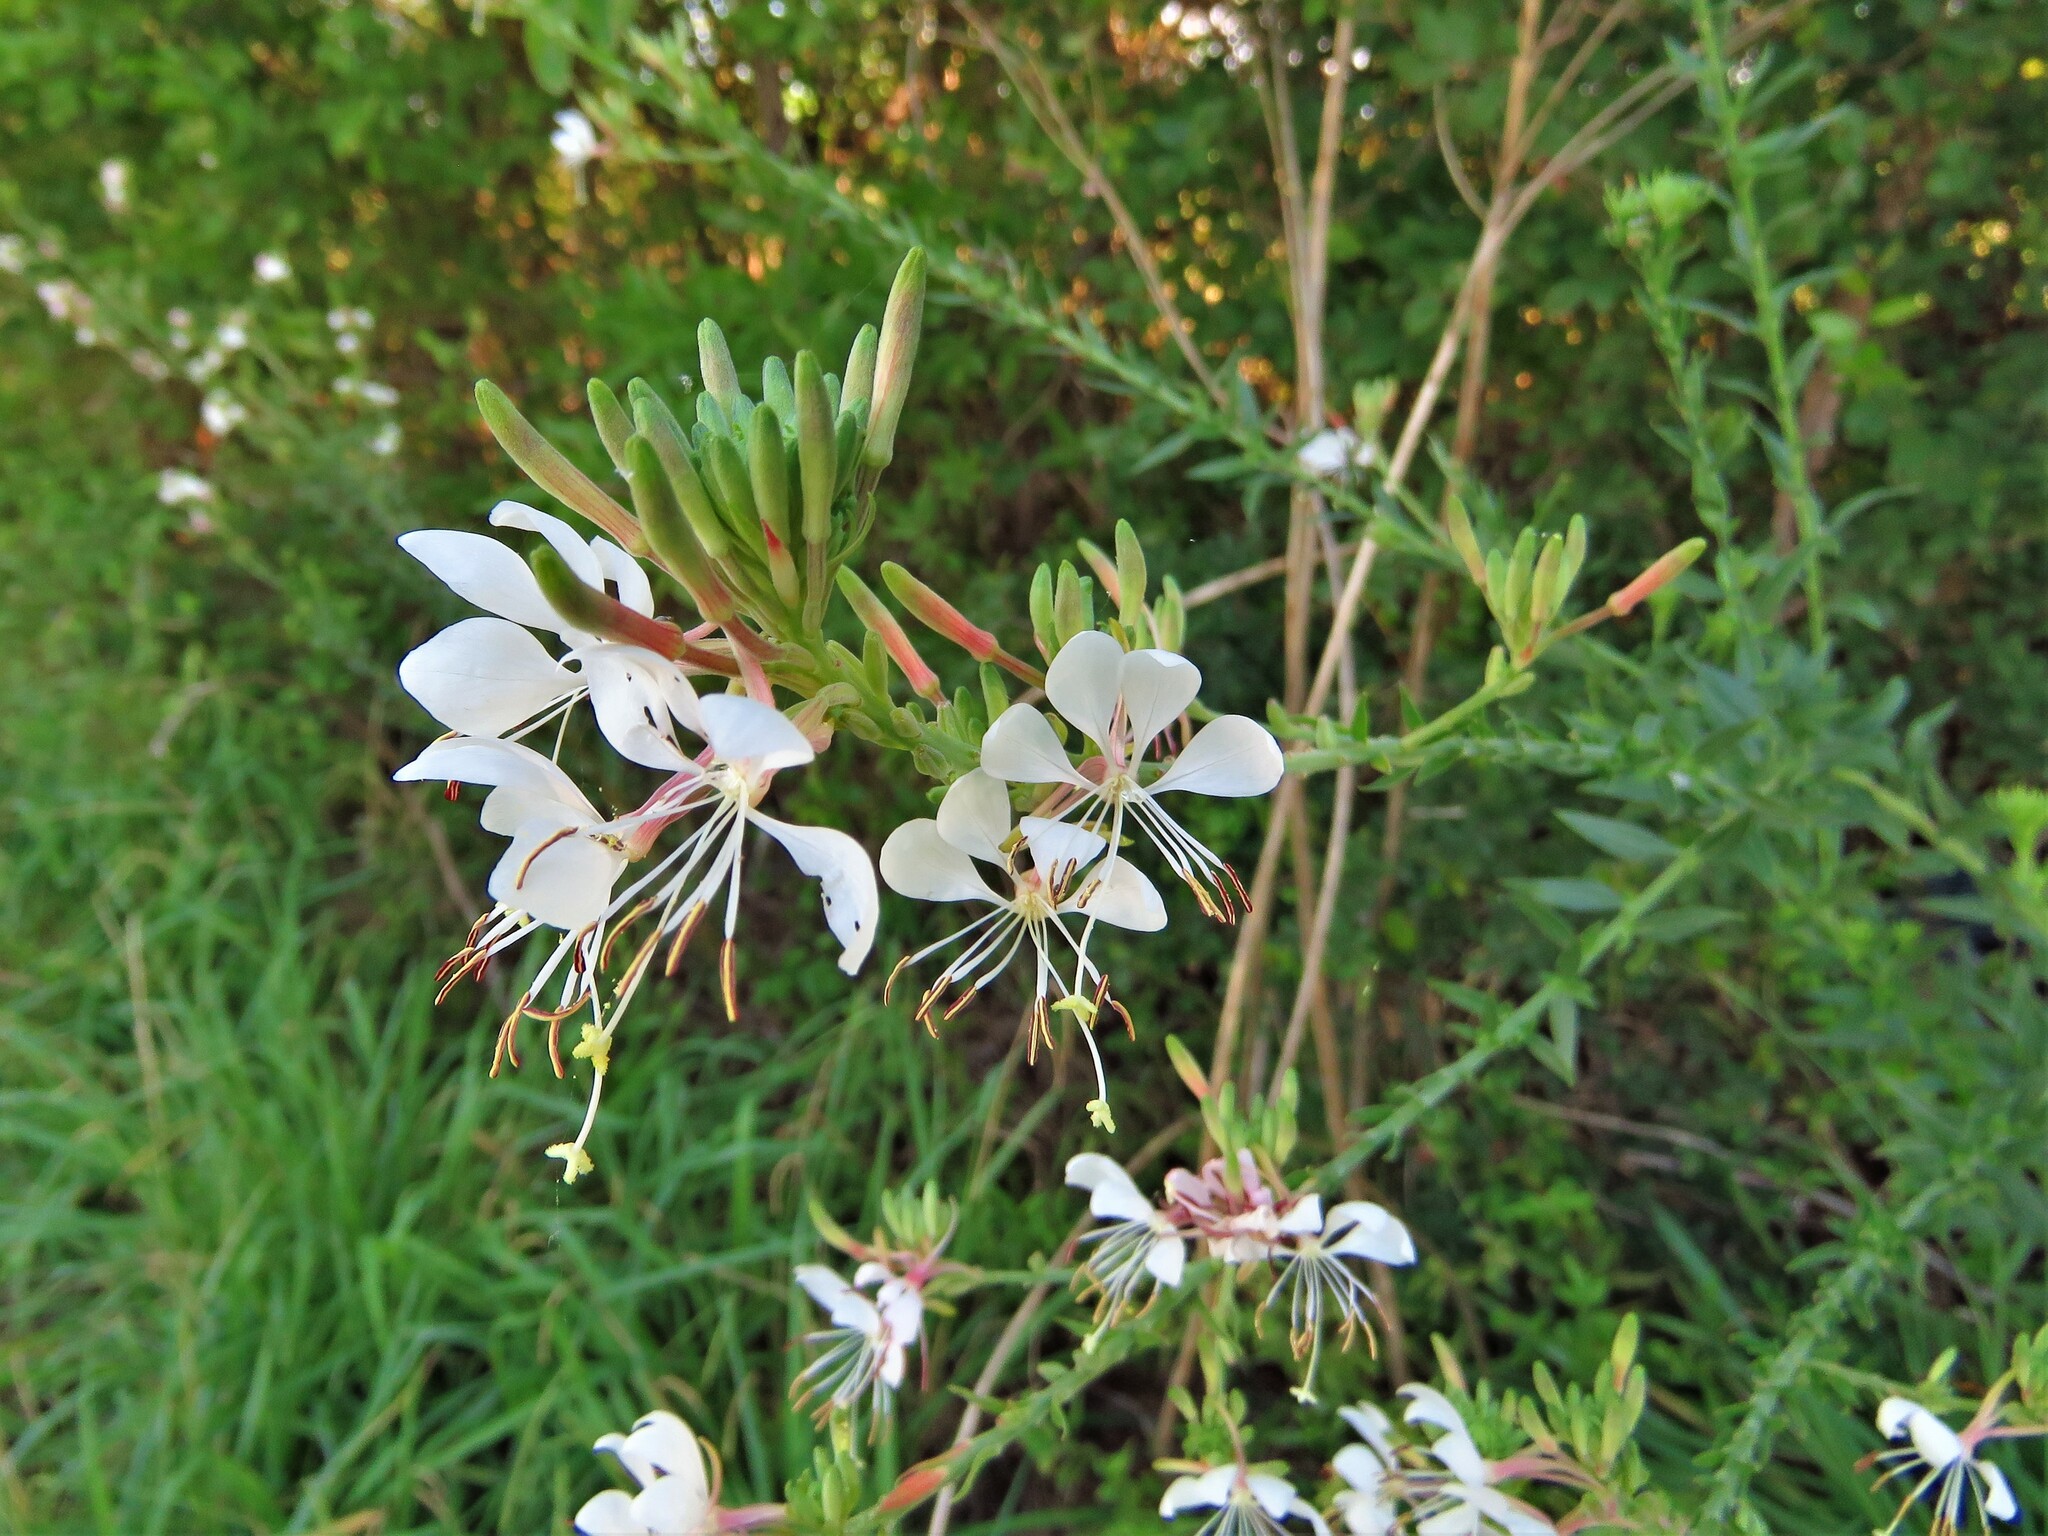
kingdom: Plantae
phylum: Tracheophyta
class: Magnoliopsida
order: Myrtales
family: Onagraceae
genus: Oenothera
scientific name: Oenothera suffulta
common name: Kisses
